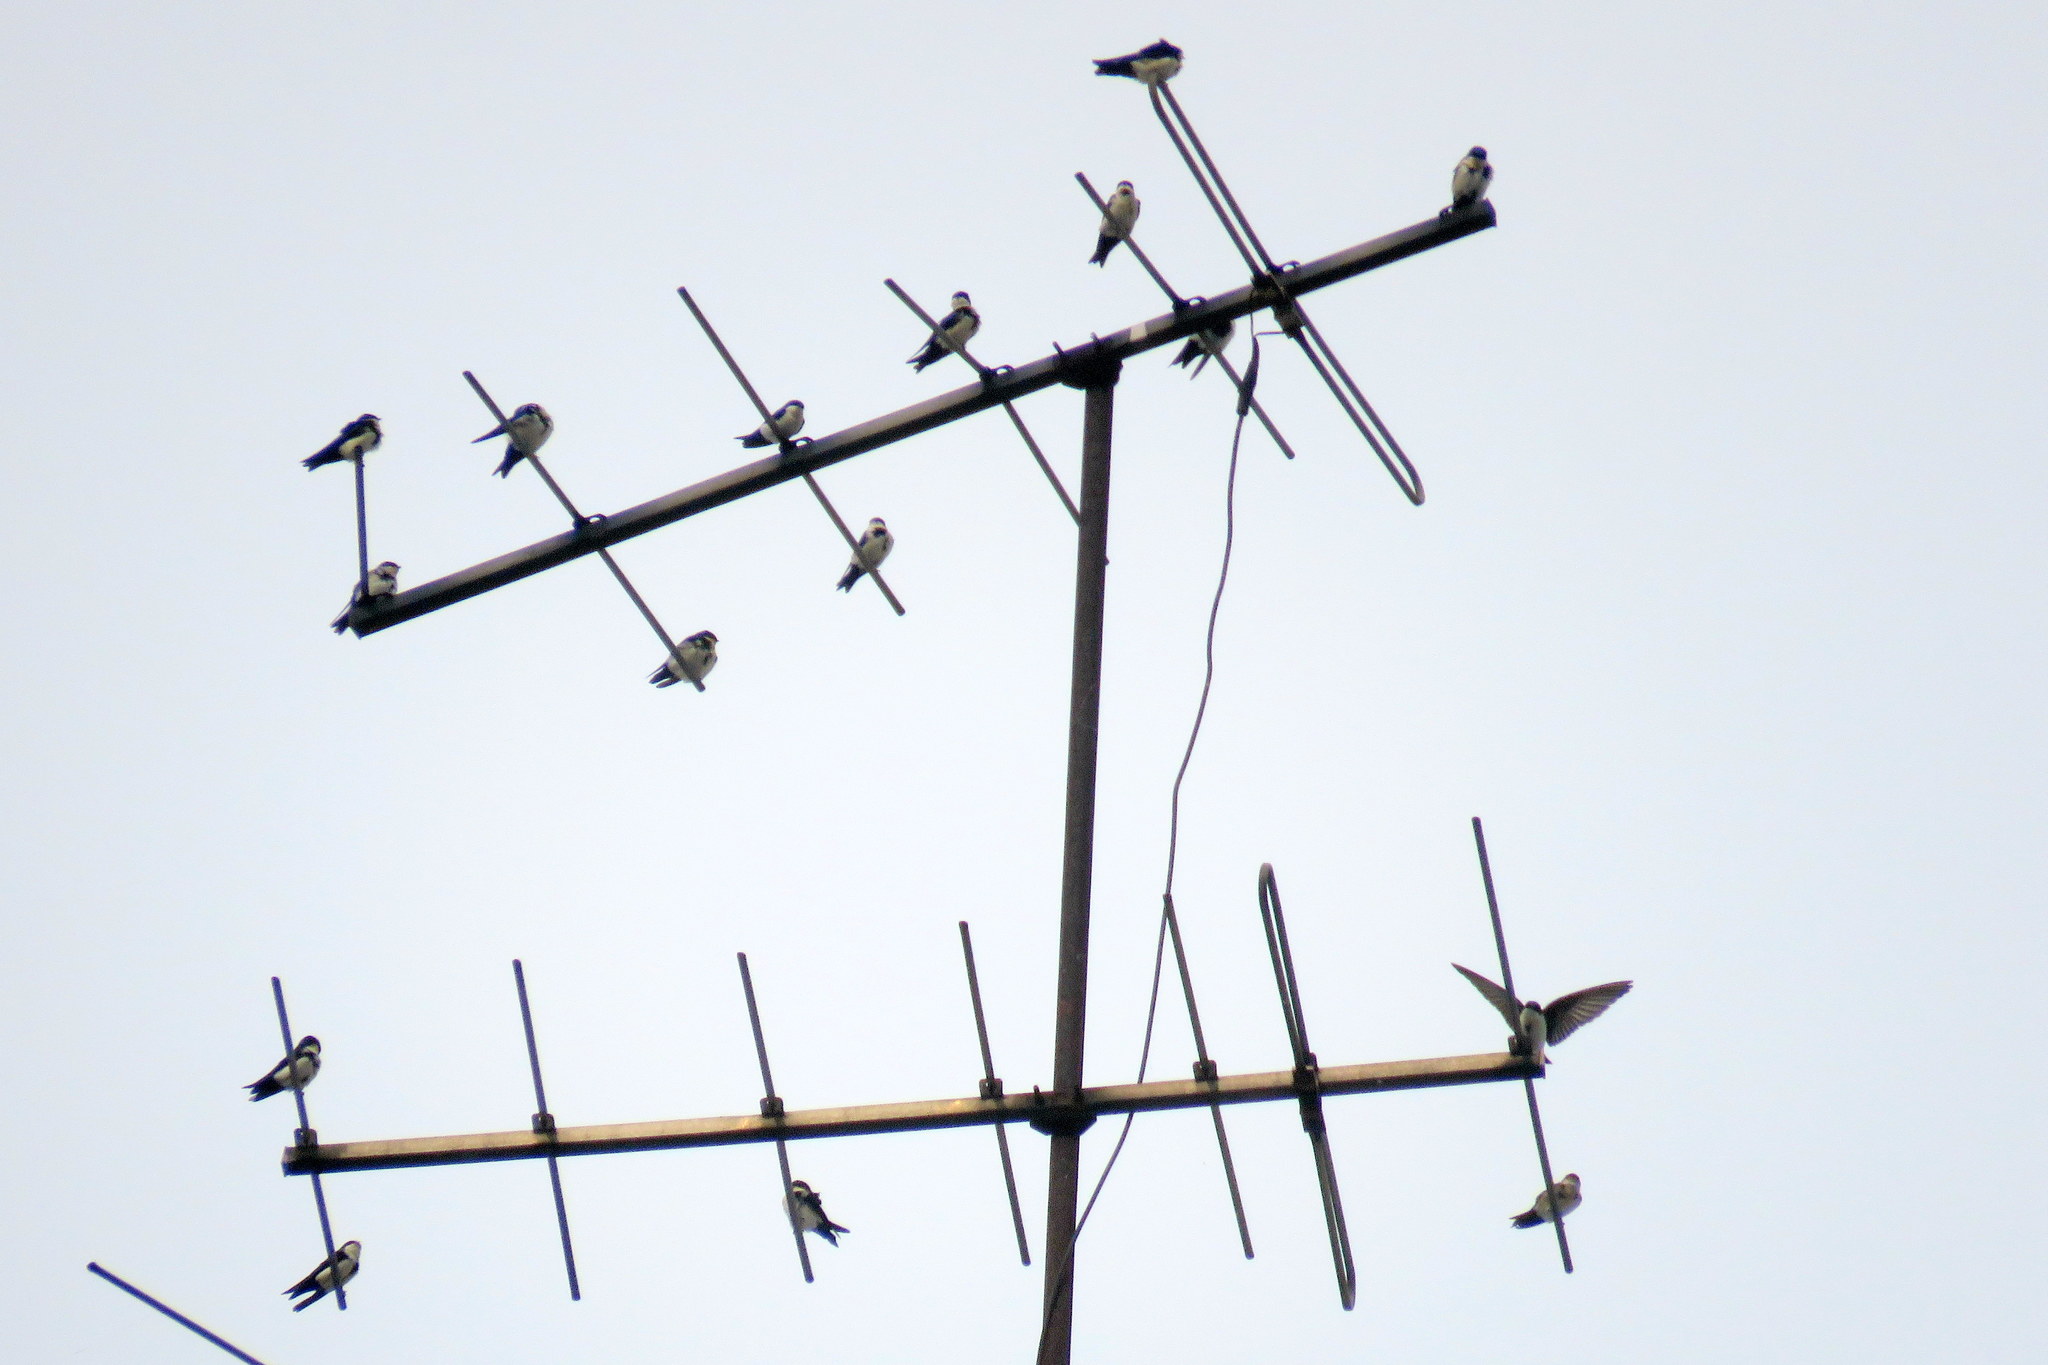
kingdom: Animalia
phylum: Chordata
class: Aves
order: Passeriformes
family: Hirundinidae
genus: Notiochelidon
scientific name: Notiochelidon cyanoleuca
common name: Blue-and-white swallow
